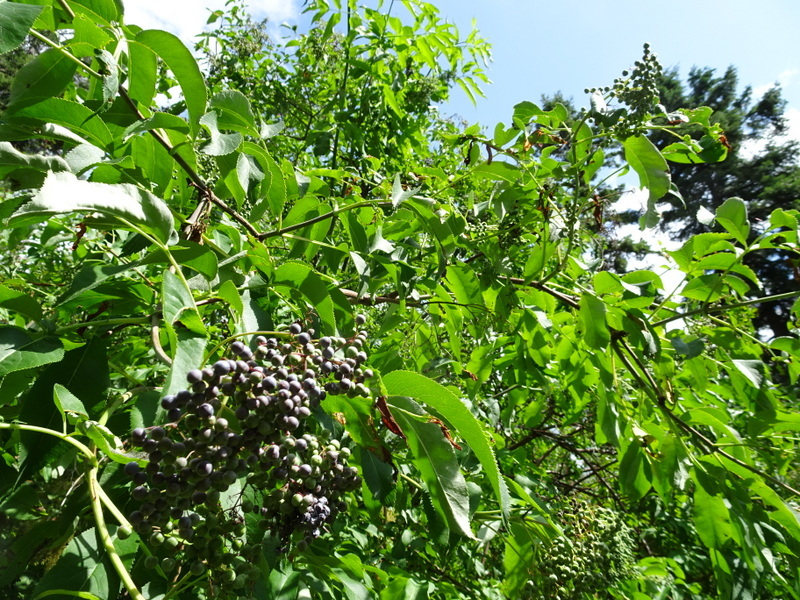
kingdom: Plantae
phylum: Tracheophyta
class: Magnoliopsida
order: Dipsacales
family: Viburnaceae
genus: Sambucus
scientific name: Sambucus cerulea
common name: Blue elder
